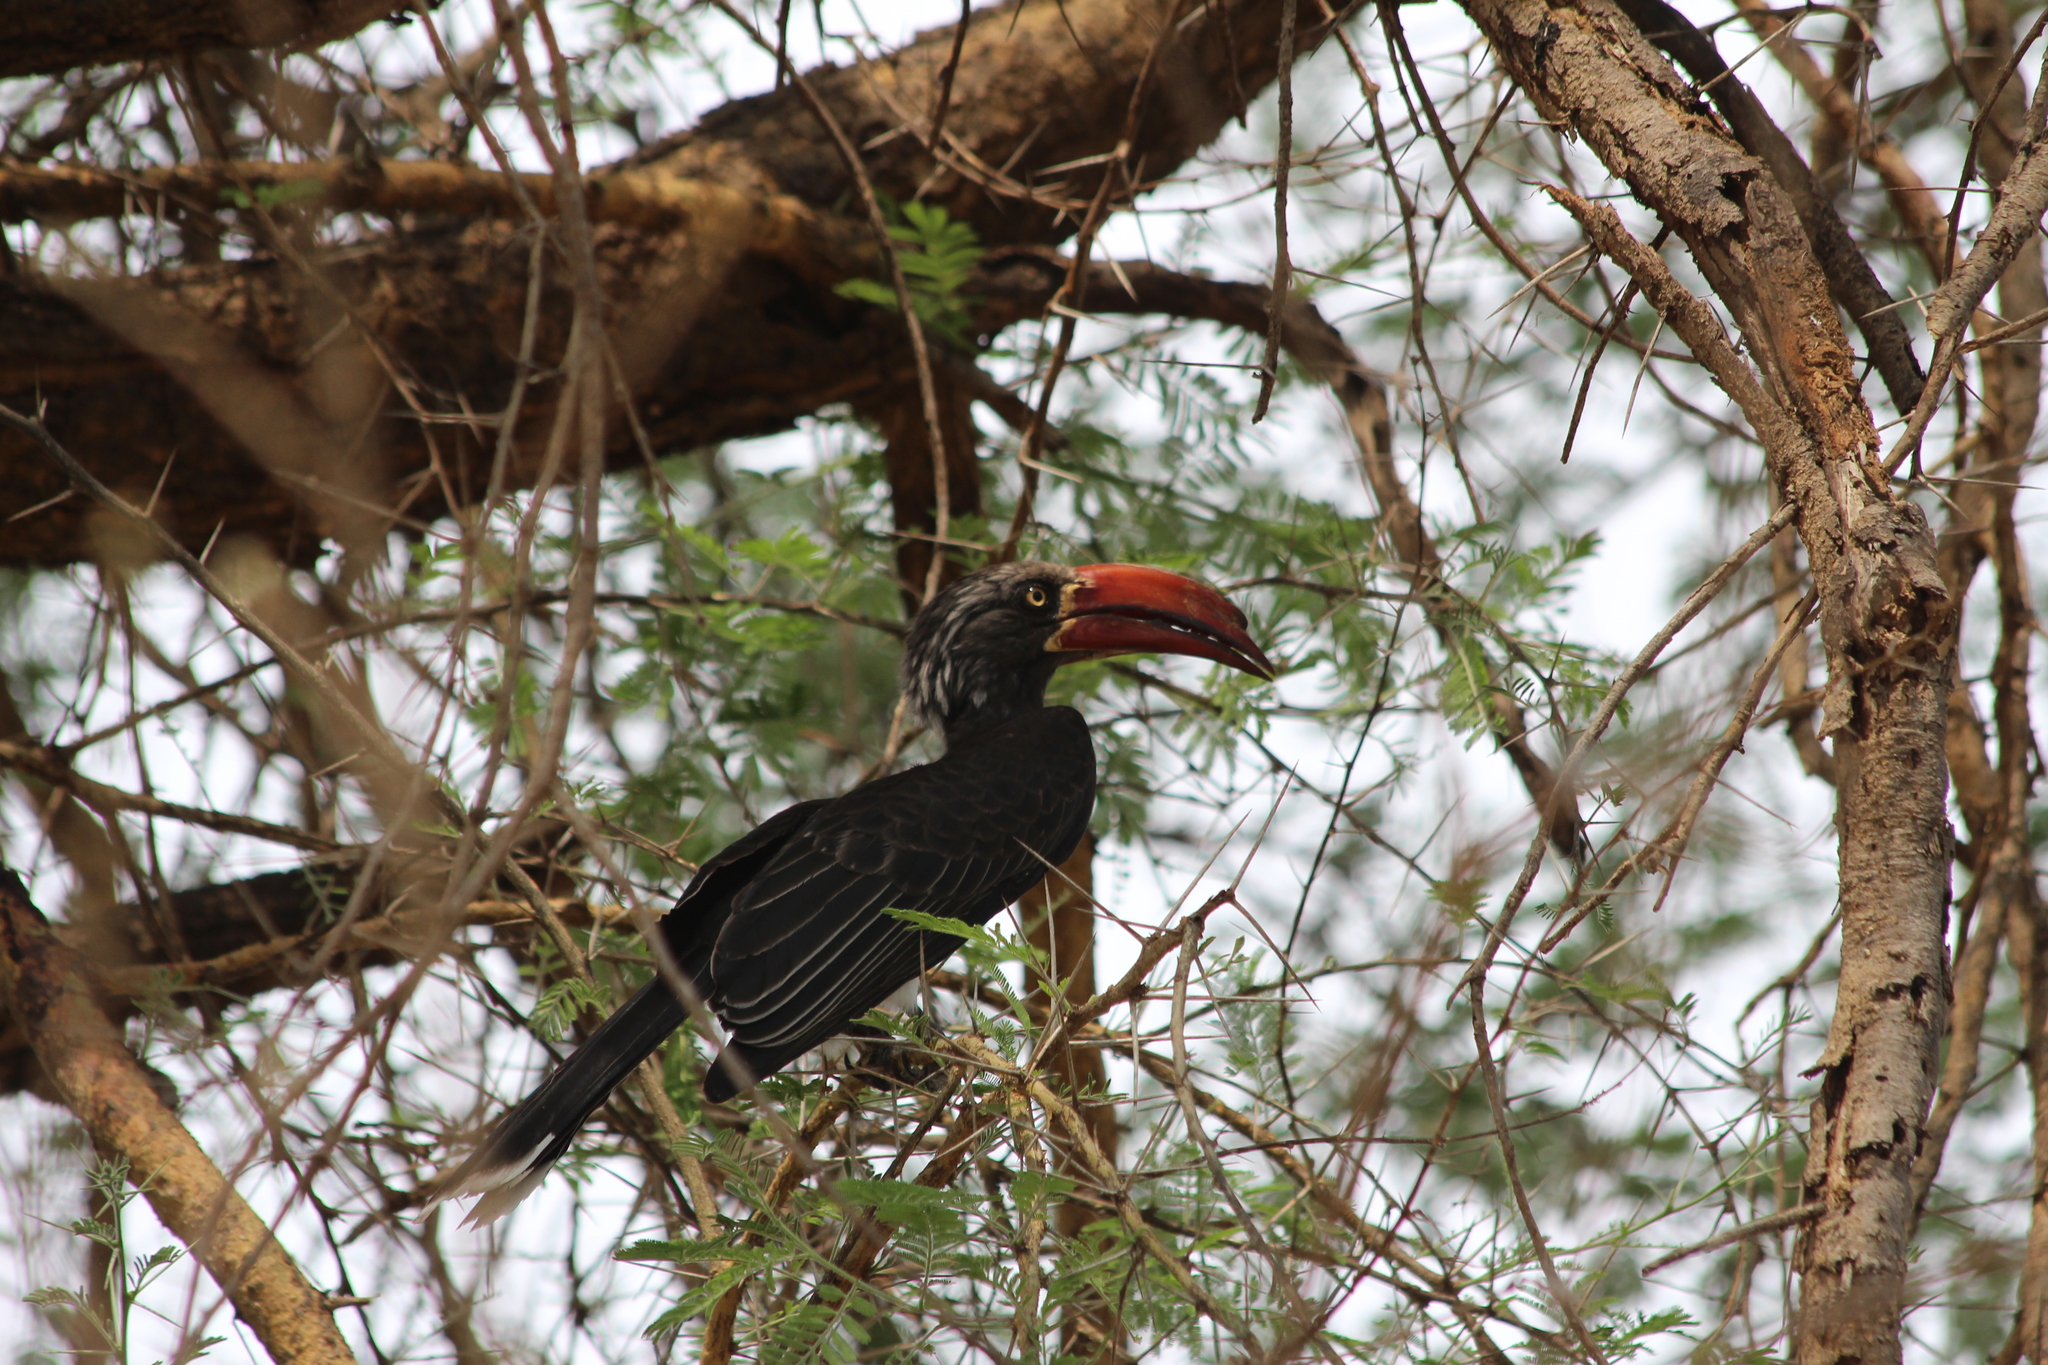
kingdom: Animalia
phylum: Chordata
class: Aves
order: Bucerotiformes
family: Bucerotidae
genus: Lophoceros
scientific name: Lophoceros alboterminatus
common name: Crowned hornbill
